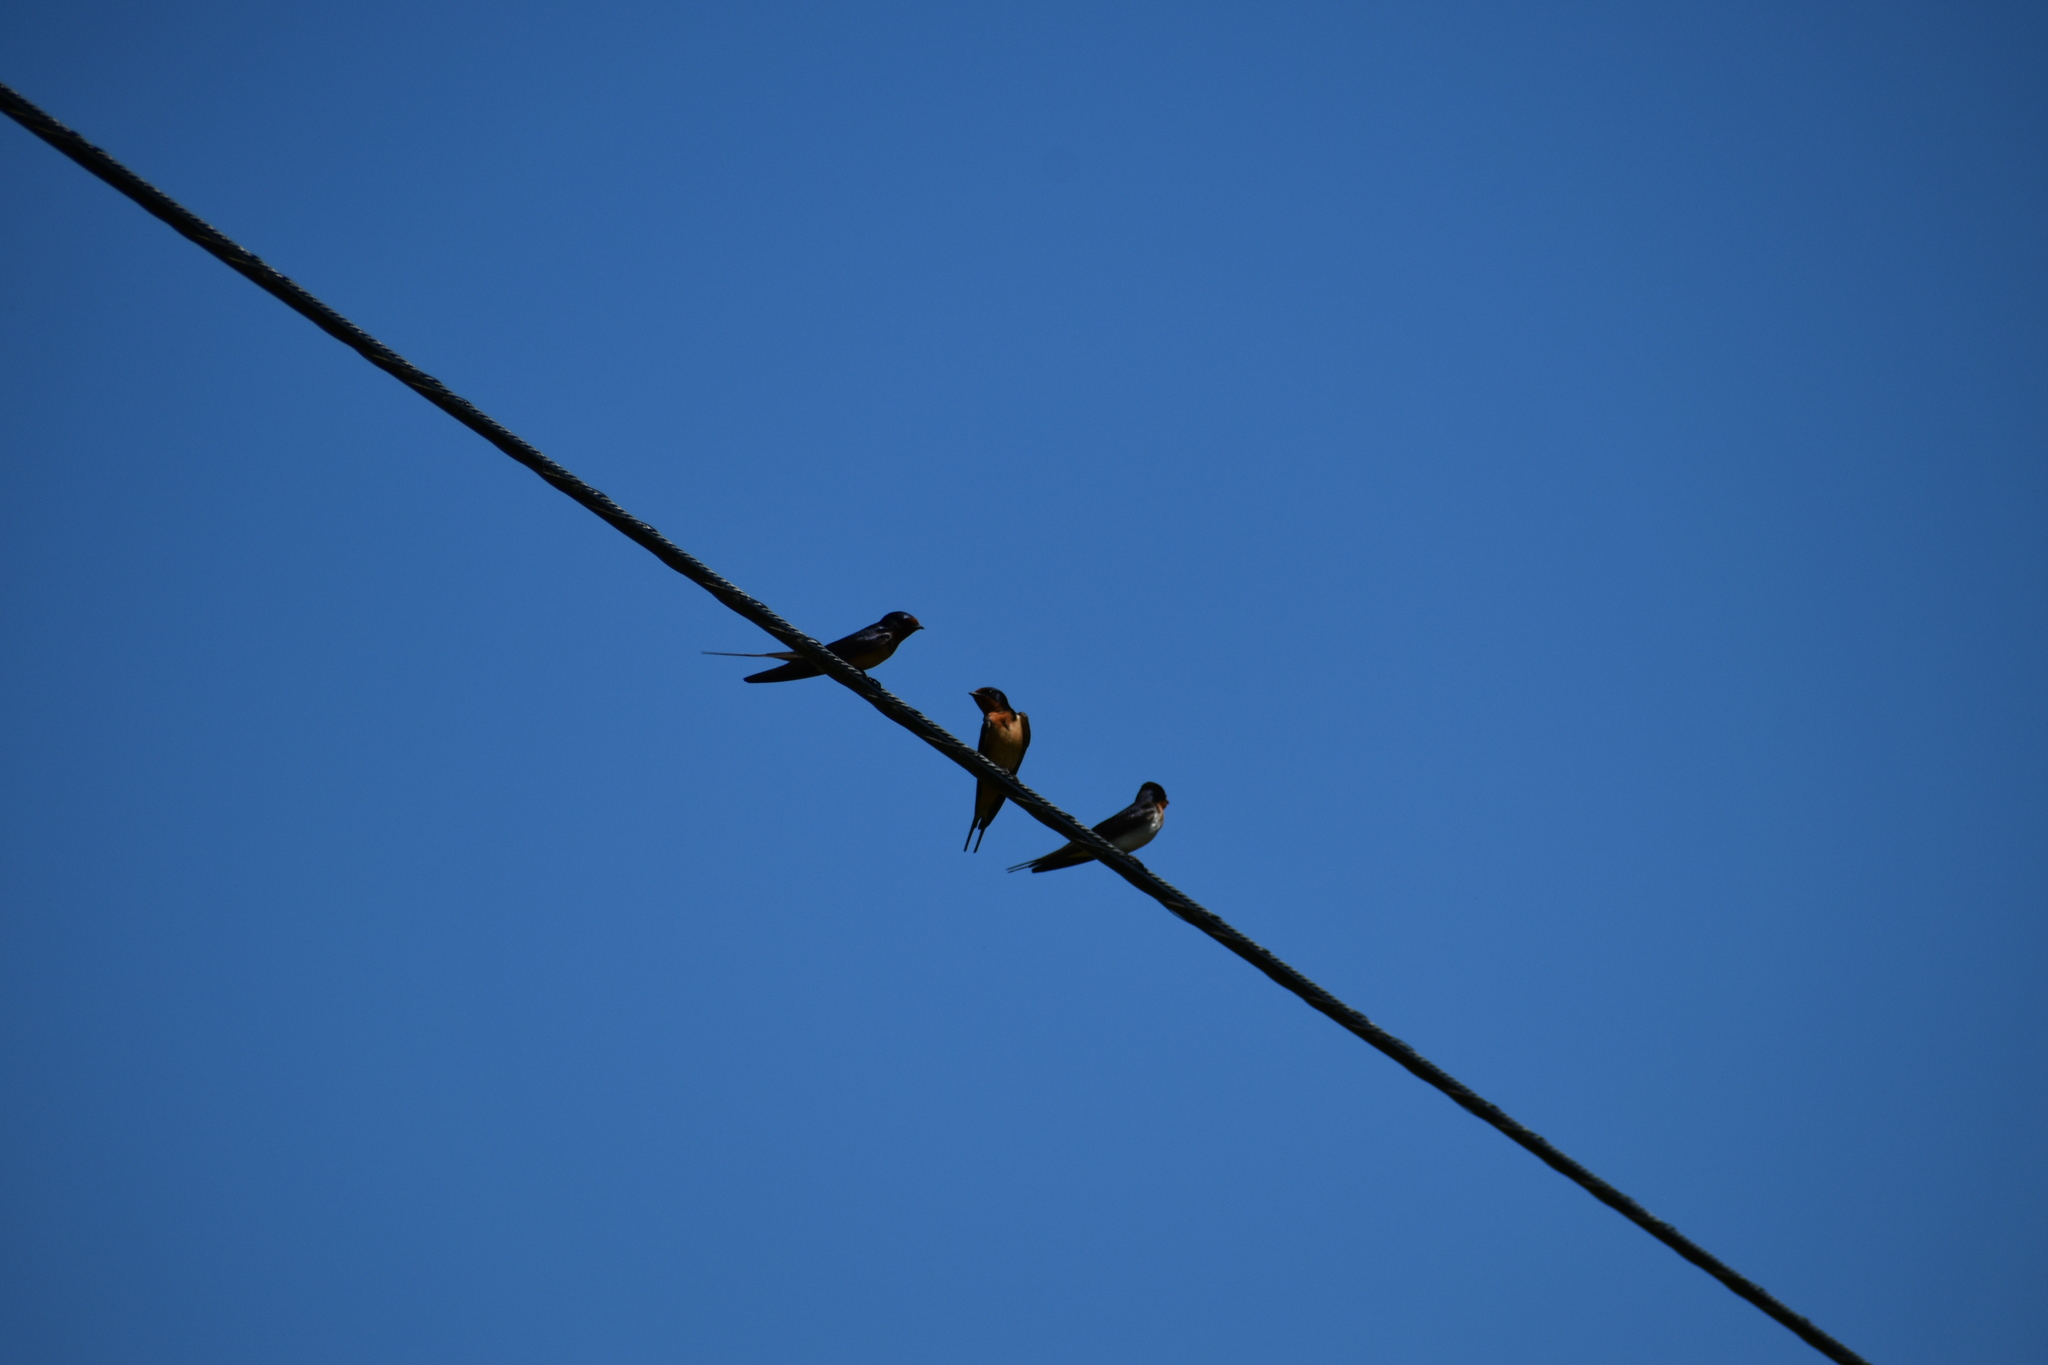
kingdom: Animalia
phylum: Chordata
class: Aves
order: Passeriformes
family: Hirundinidae
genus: Hirundo
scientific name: Hirundo rustica
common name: Barn swallow
